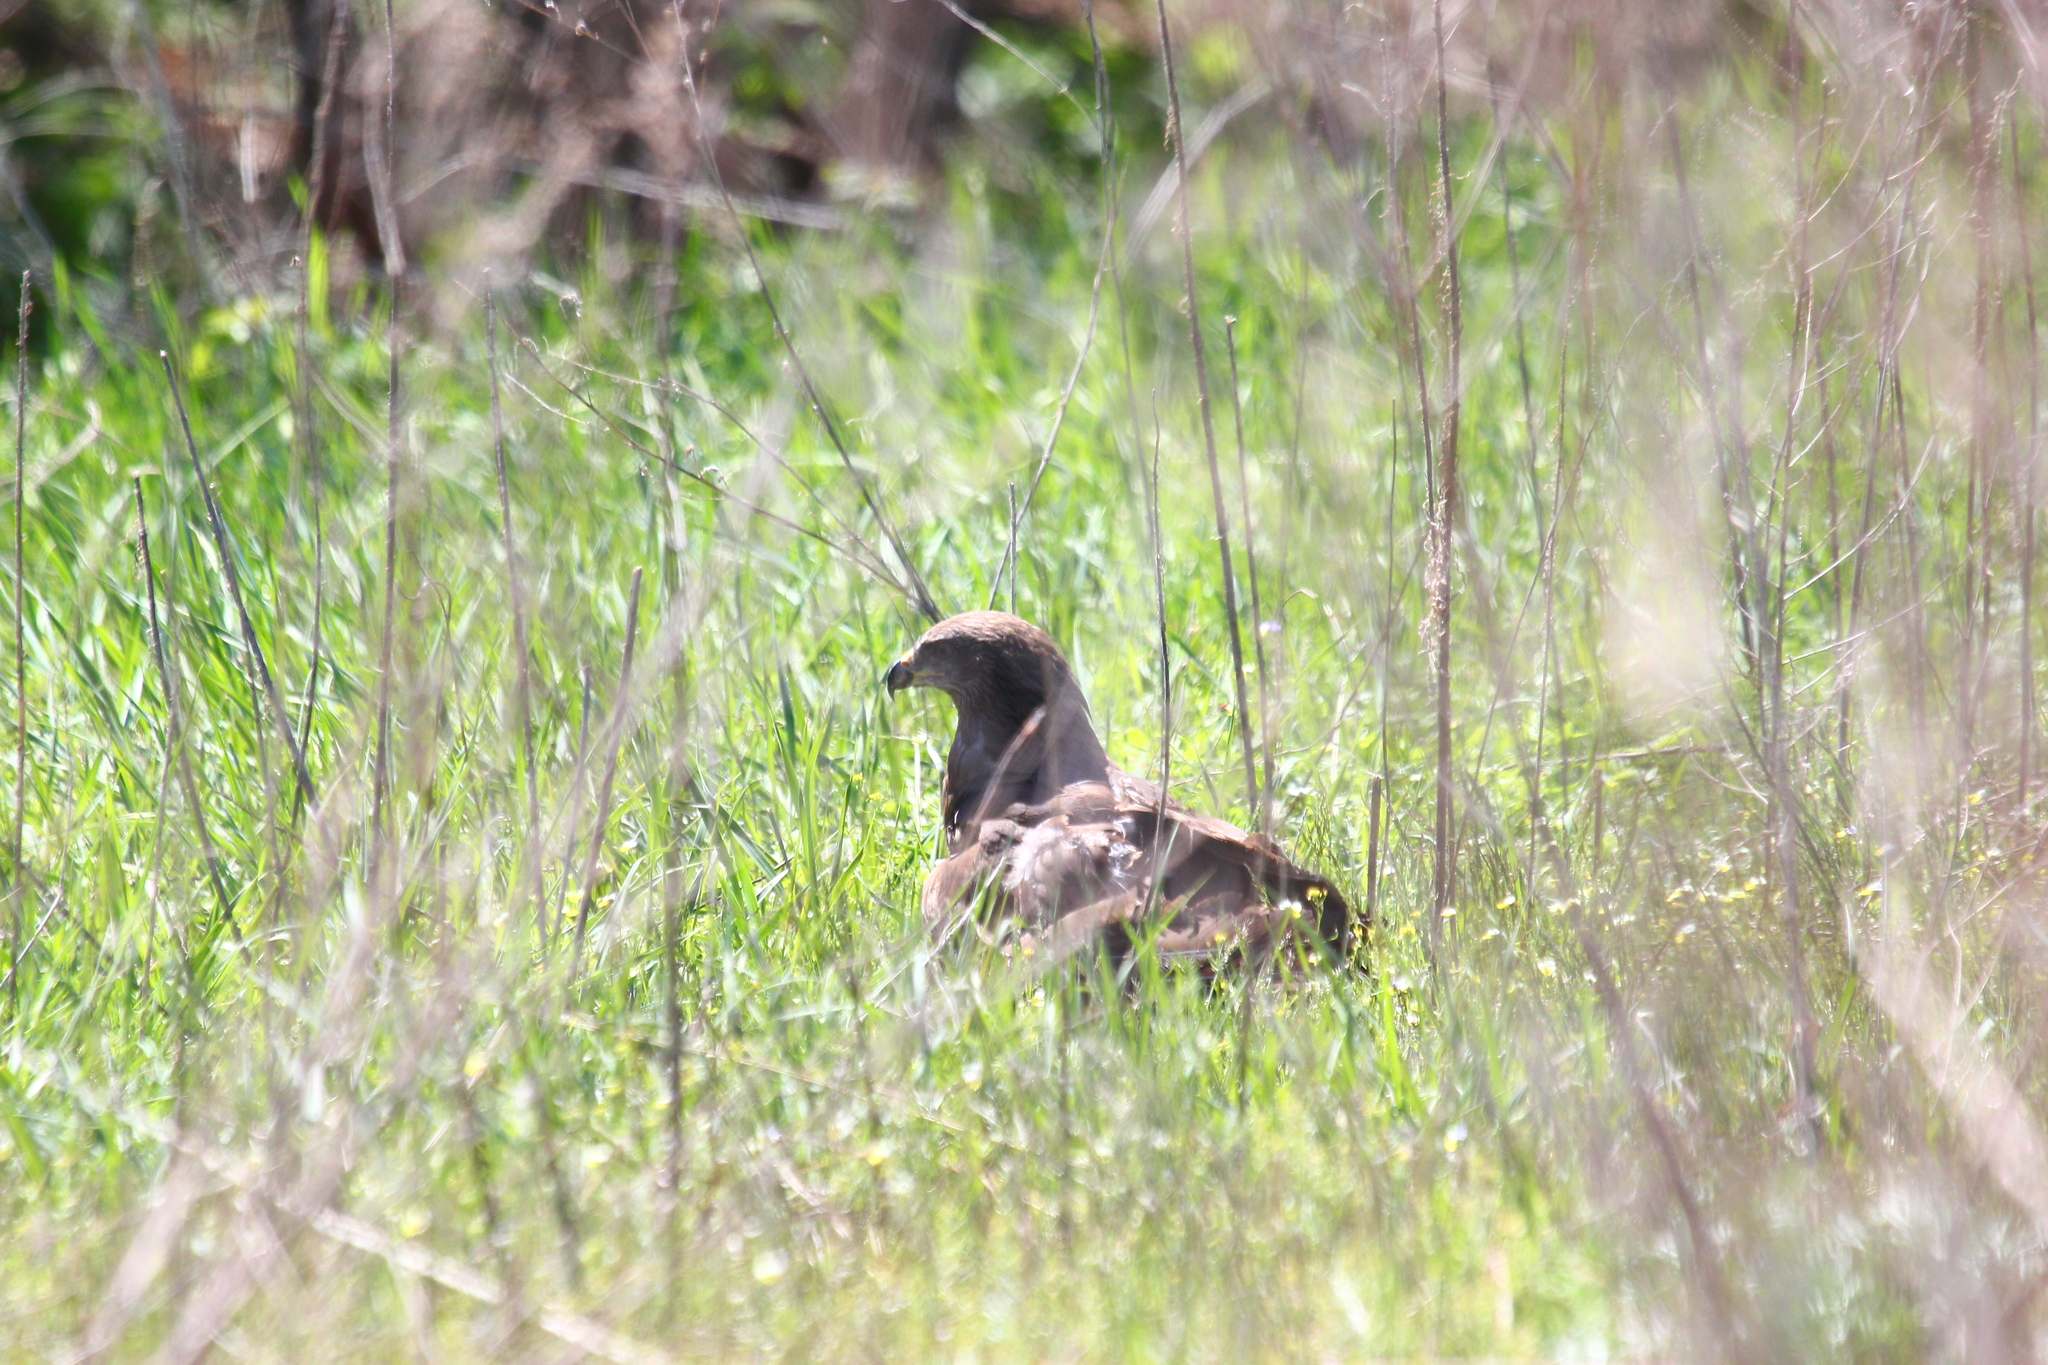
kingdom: Animalia
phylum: Chordata
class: Aves
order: Accipitriformes
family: Accipitridae
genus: Milvus
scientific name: Milvus migrans
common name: Black kite
